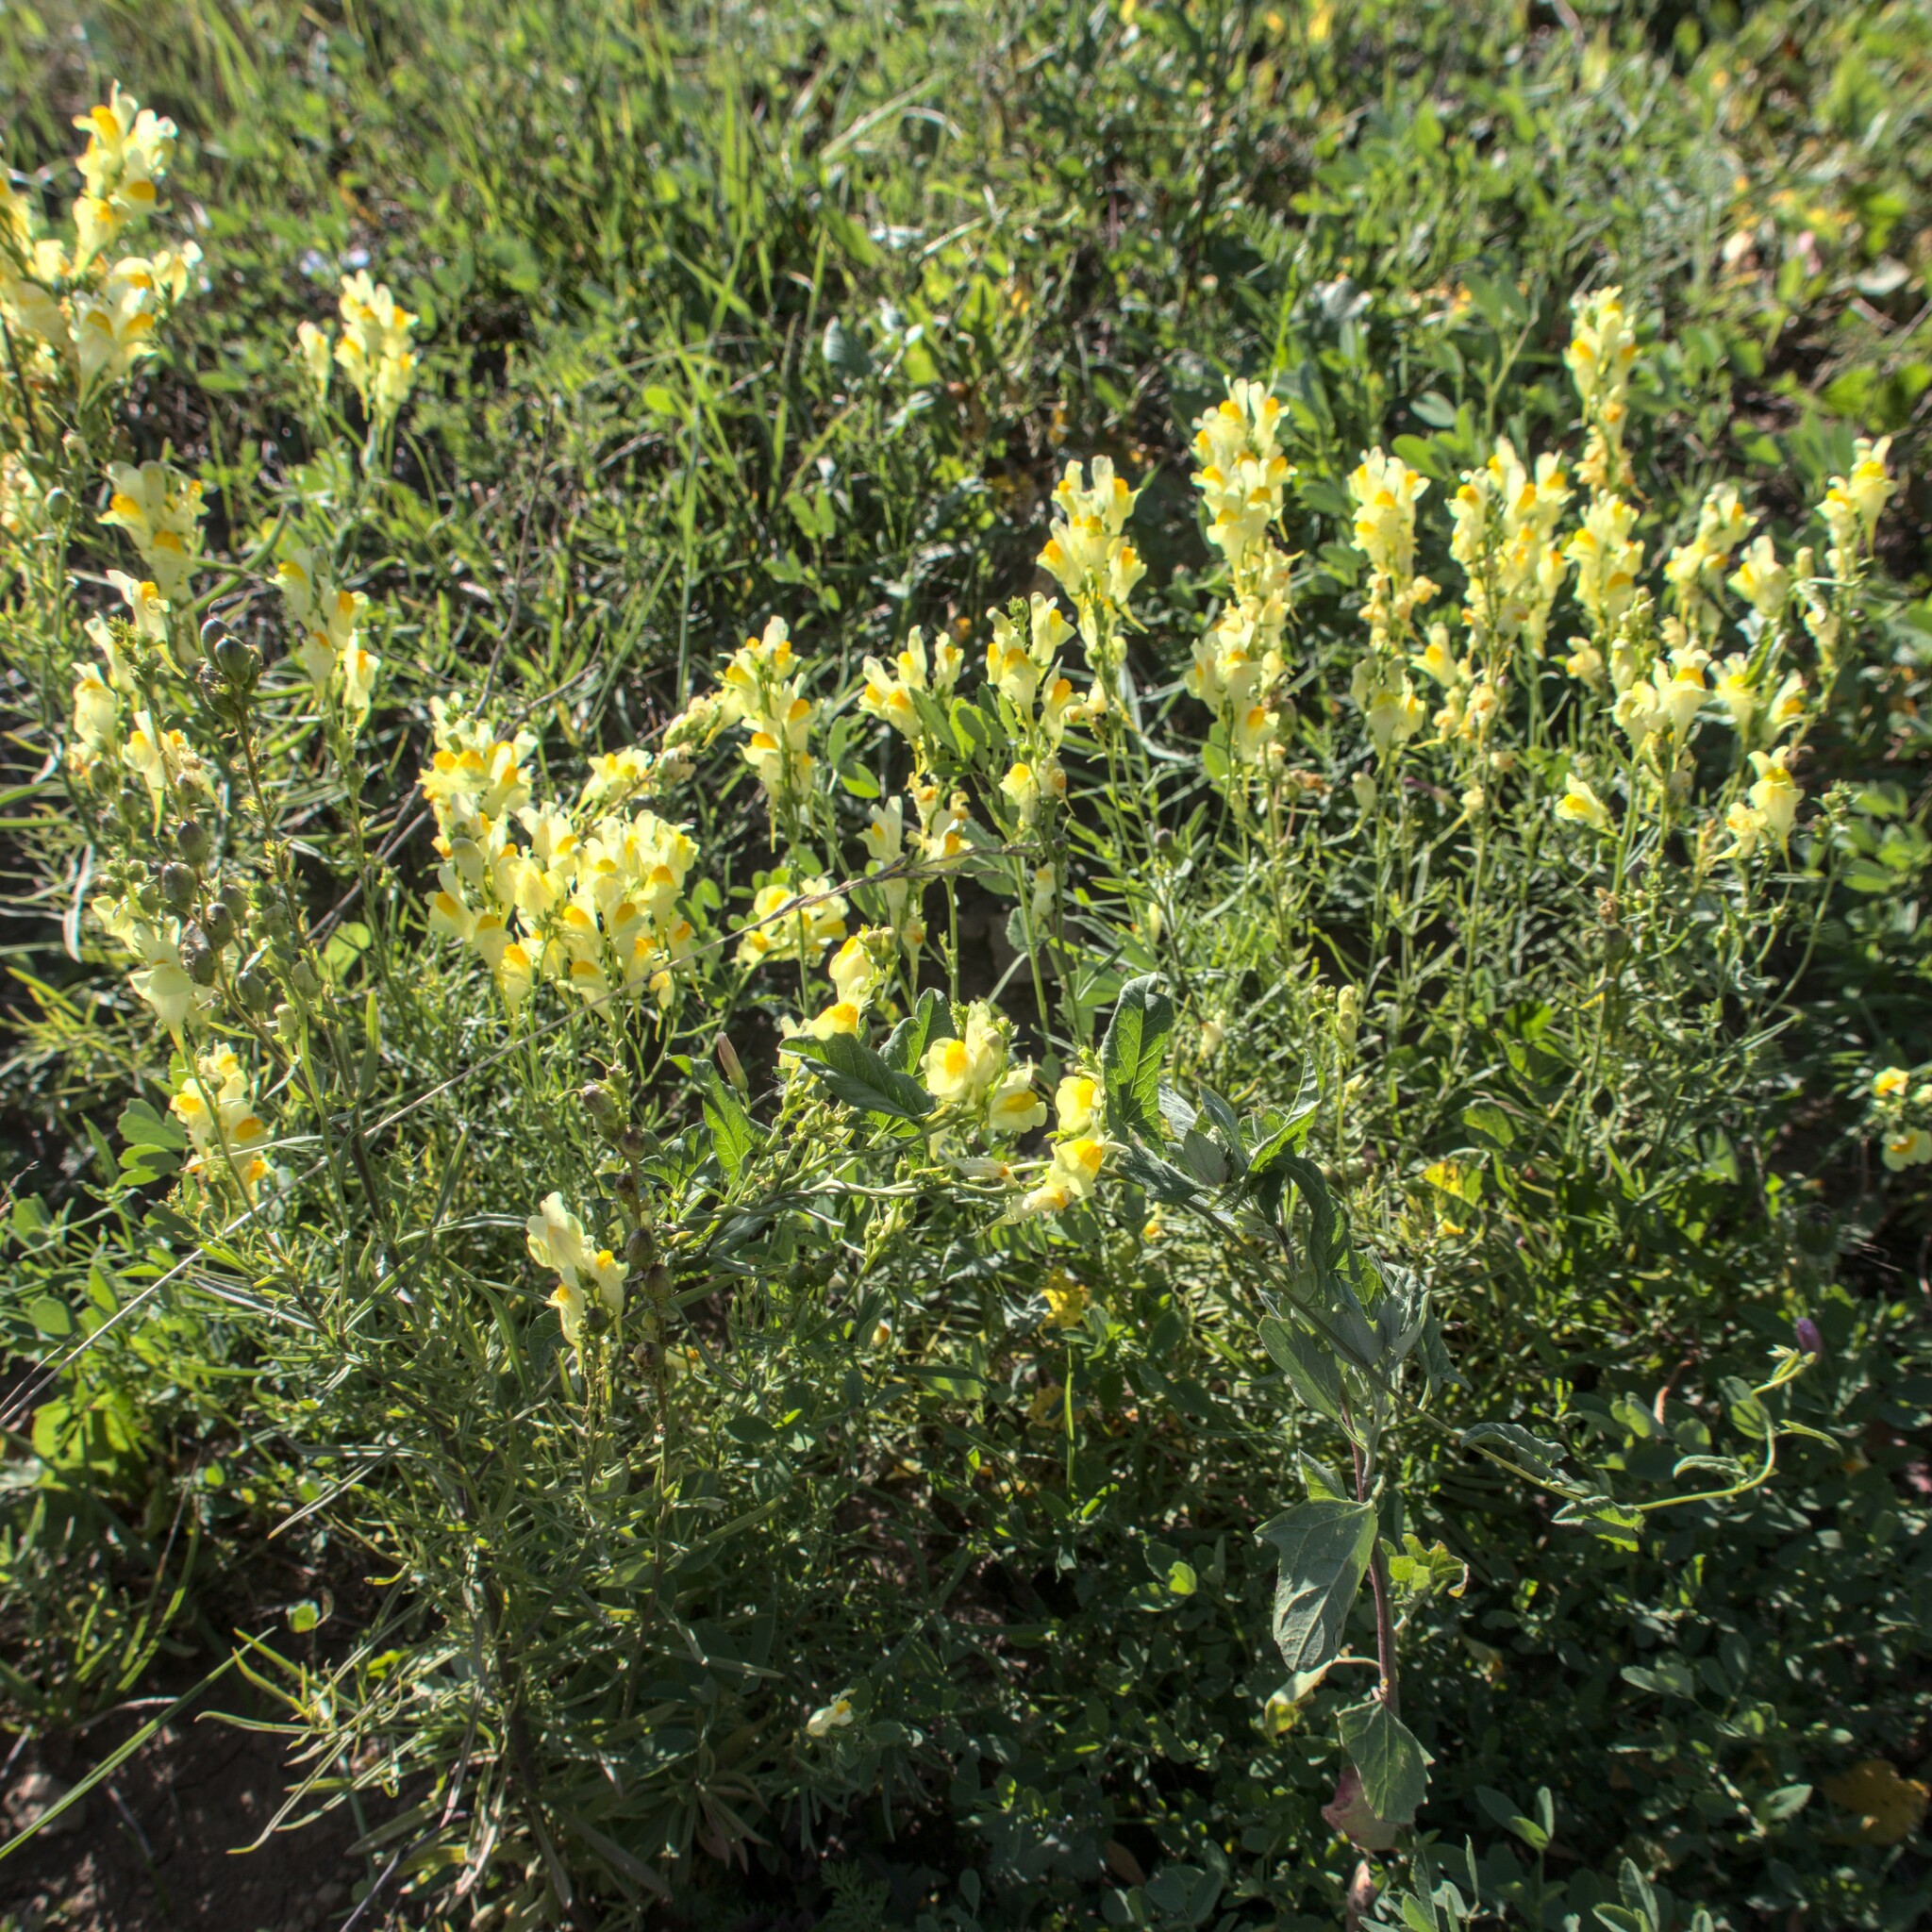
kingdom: Plantae
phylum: Tracheophyta
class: Magnoliopsida
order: Lamiales
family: Plantaginaceae
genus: Linaria
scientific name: Linaria vulgaris
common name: Butter and eggs
